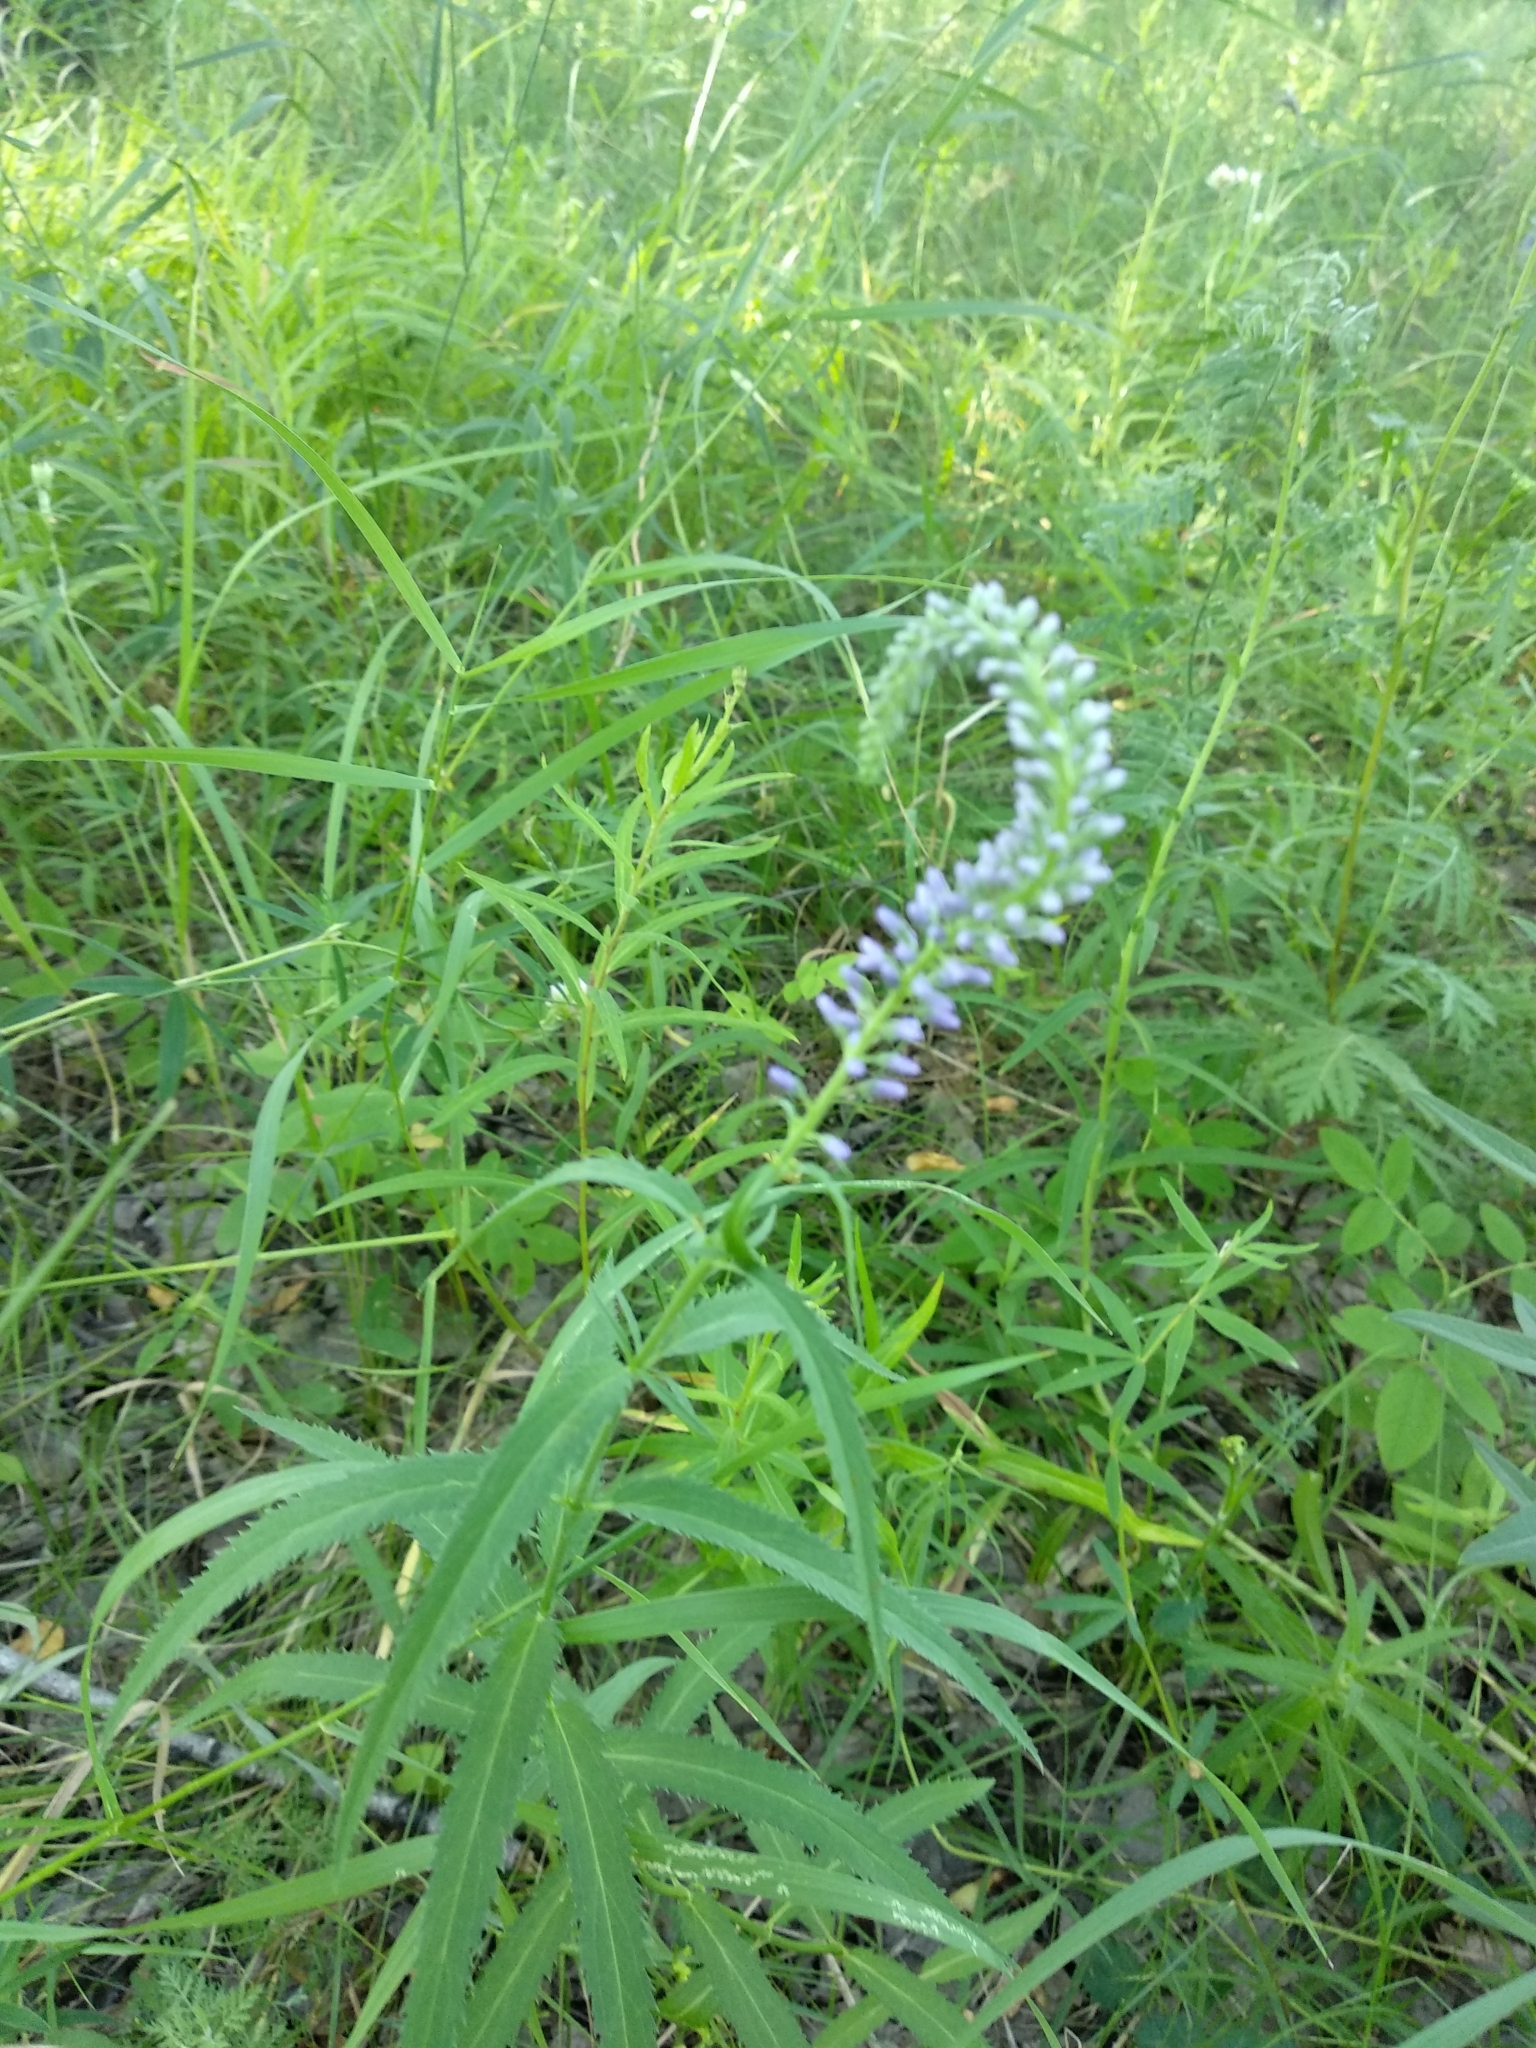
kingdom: Plantae
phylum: Tracheophyta
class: Magnoliopsida
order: Lamiales
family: Plantaginaceae
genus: Veronica
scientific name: Veronica longifolia
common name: Garden speedwell
